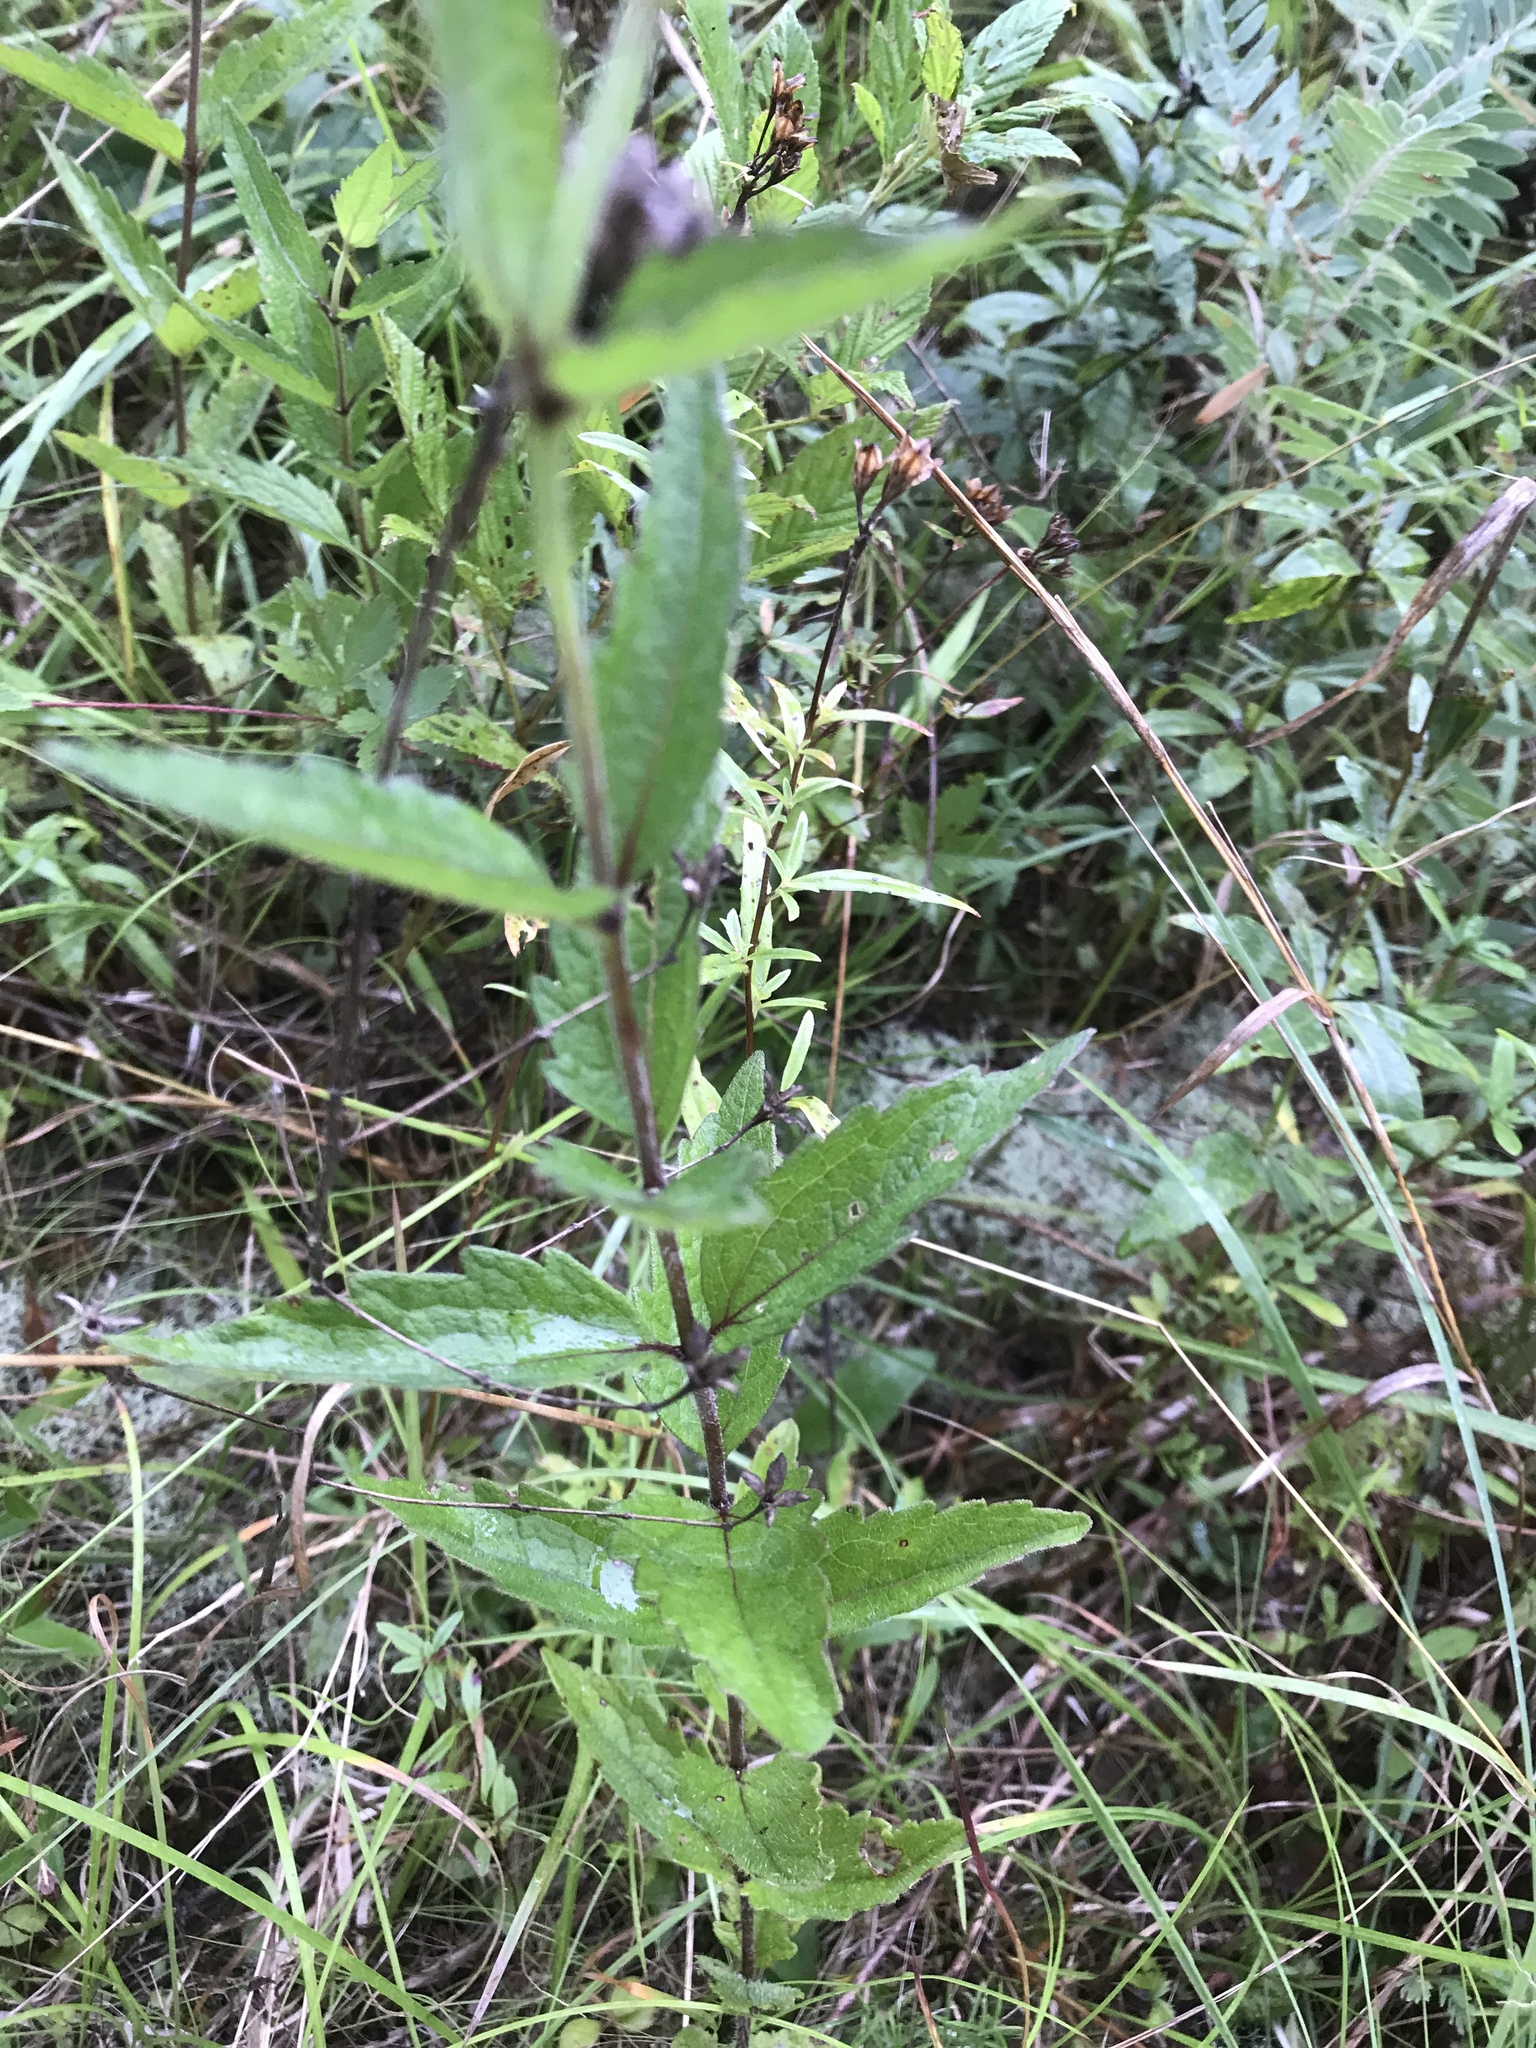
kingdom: Plantae
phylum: Tracheophyta
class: Magnoliopsida
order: Asterales
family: Asteraceae
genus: Eupatorium
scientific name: Eupatorium pilosum
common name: Rough boneset
